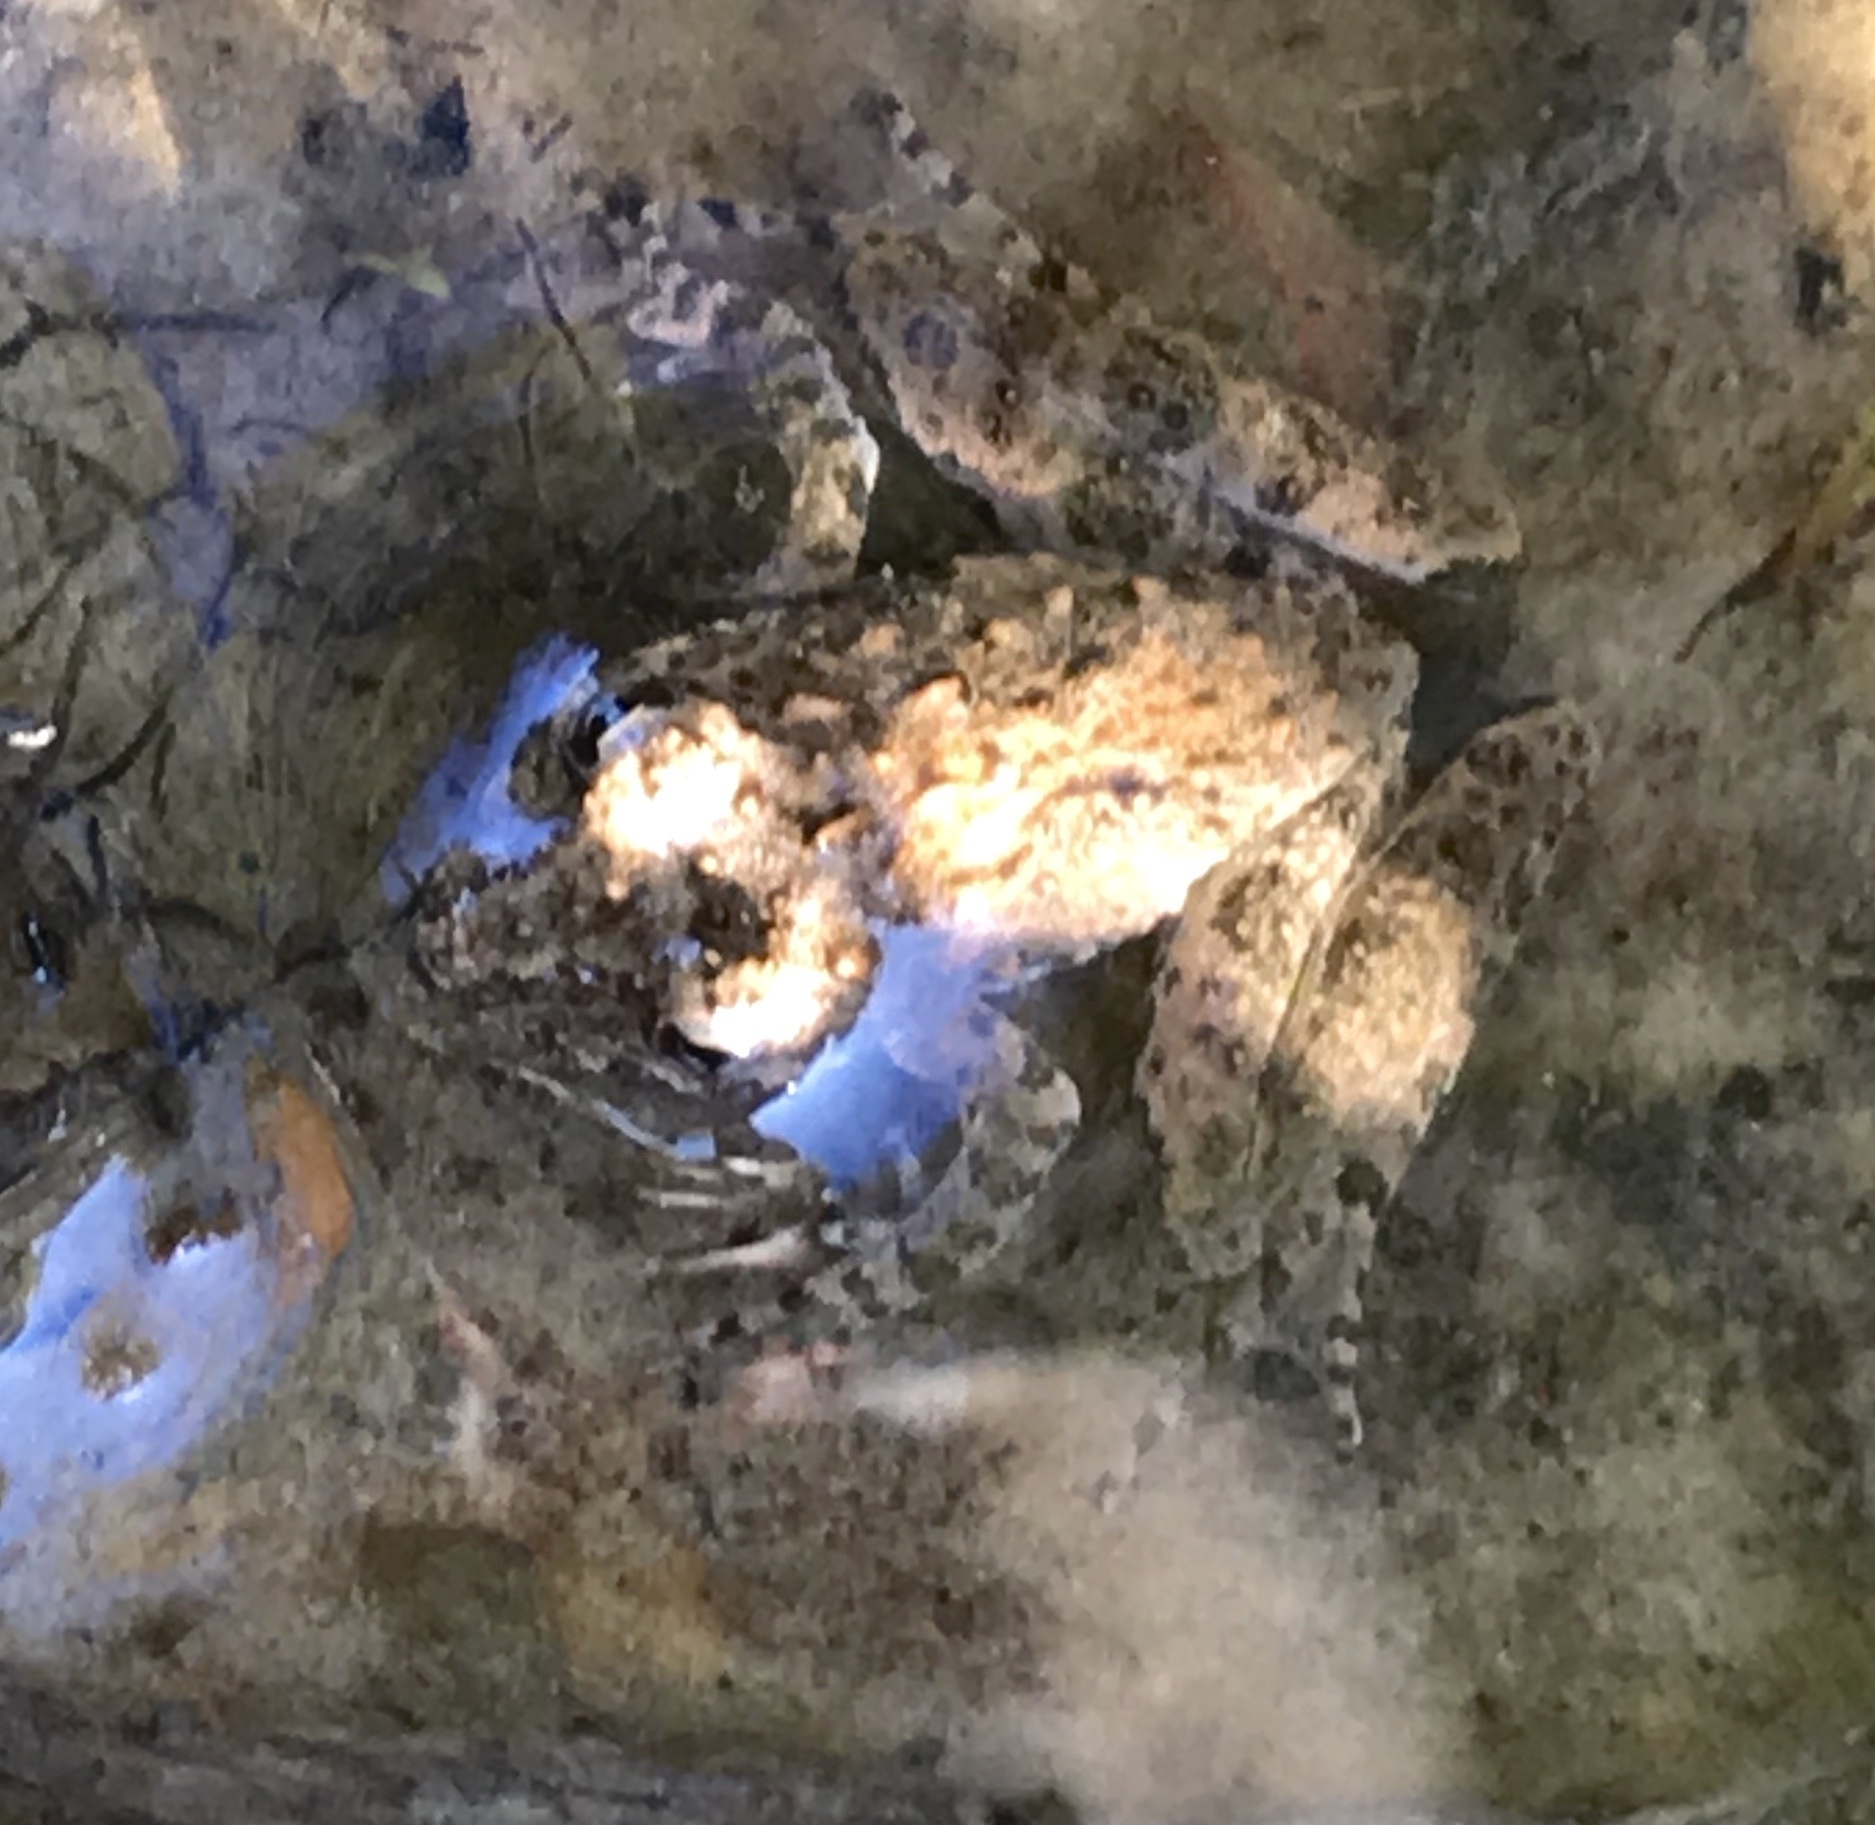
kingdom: Animalia
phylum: Chordata
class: Amphibia
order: Anura
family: Hylidae
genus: Acris
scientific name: Acris blanchardi
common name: Blanchard's cricket frog
